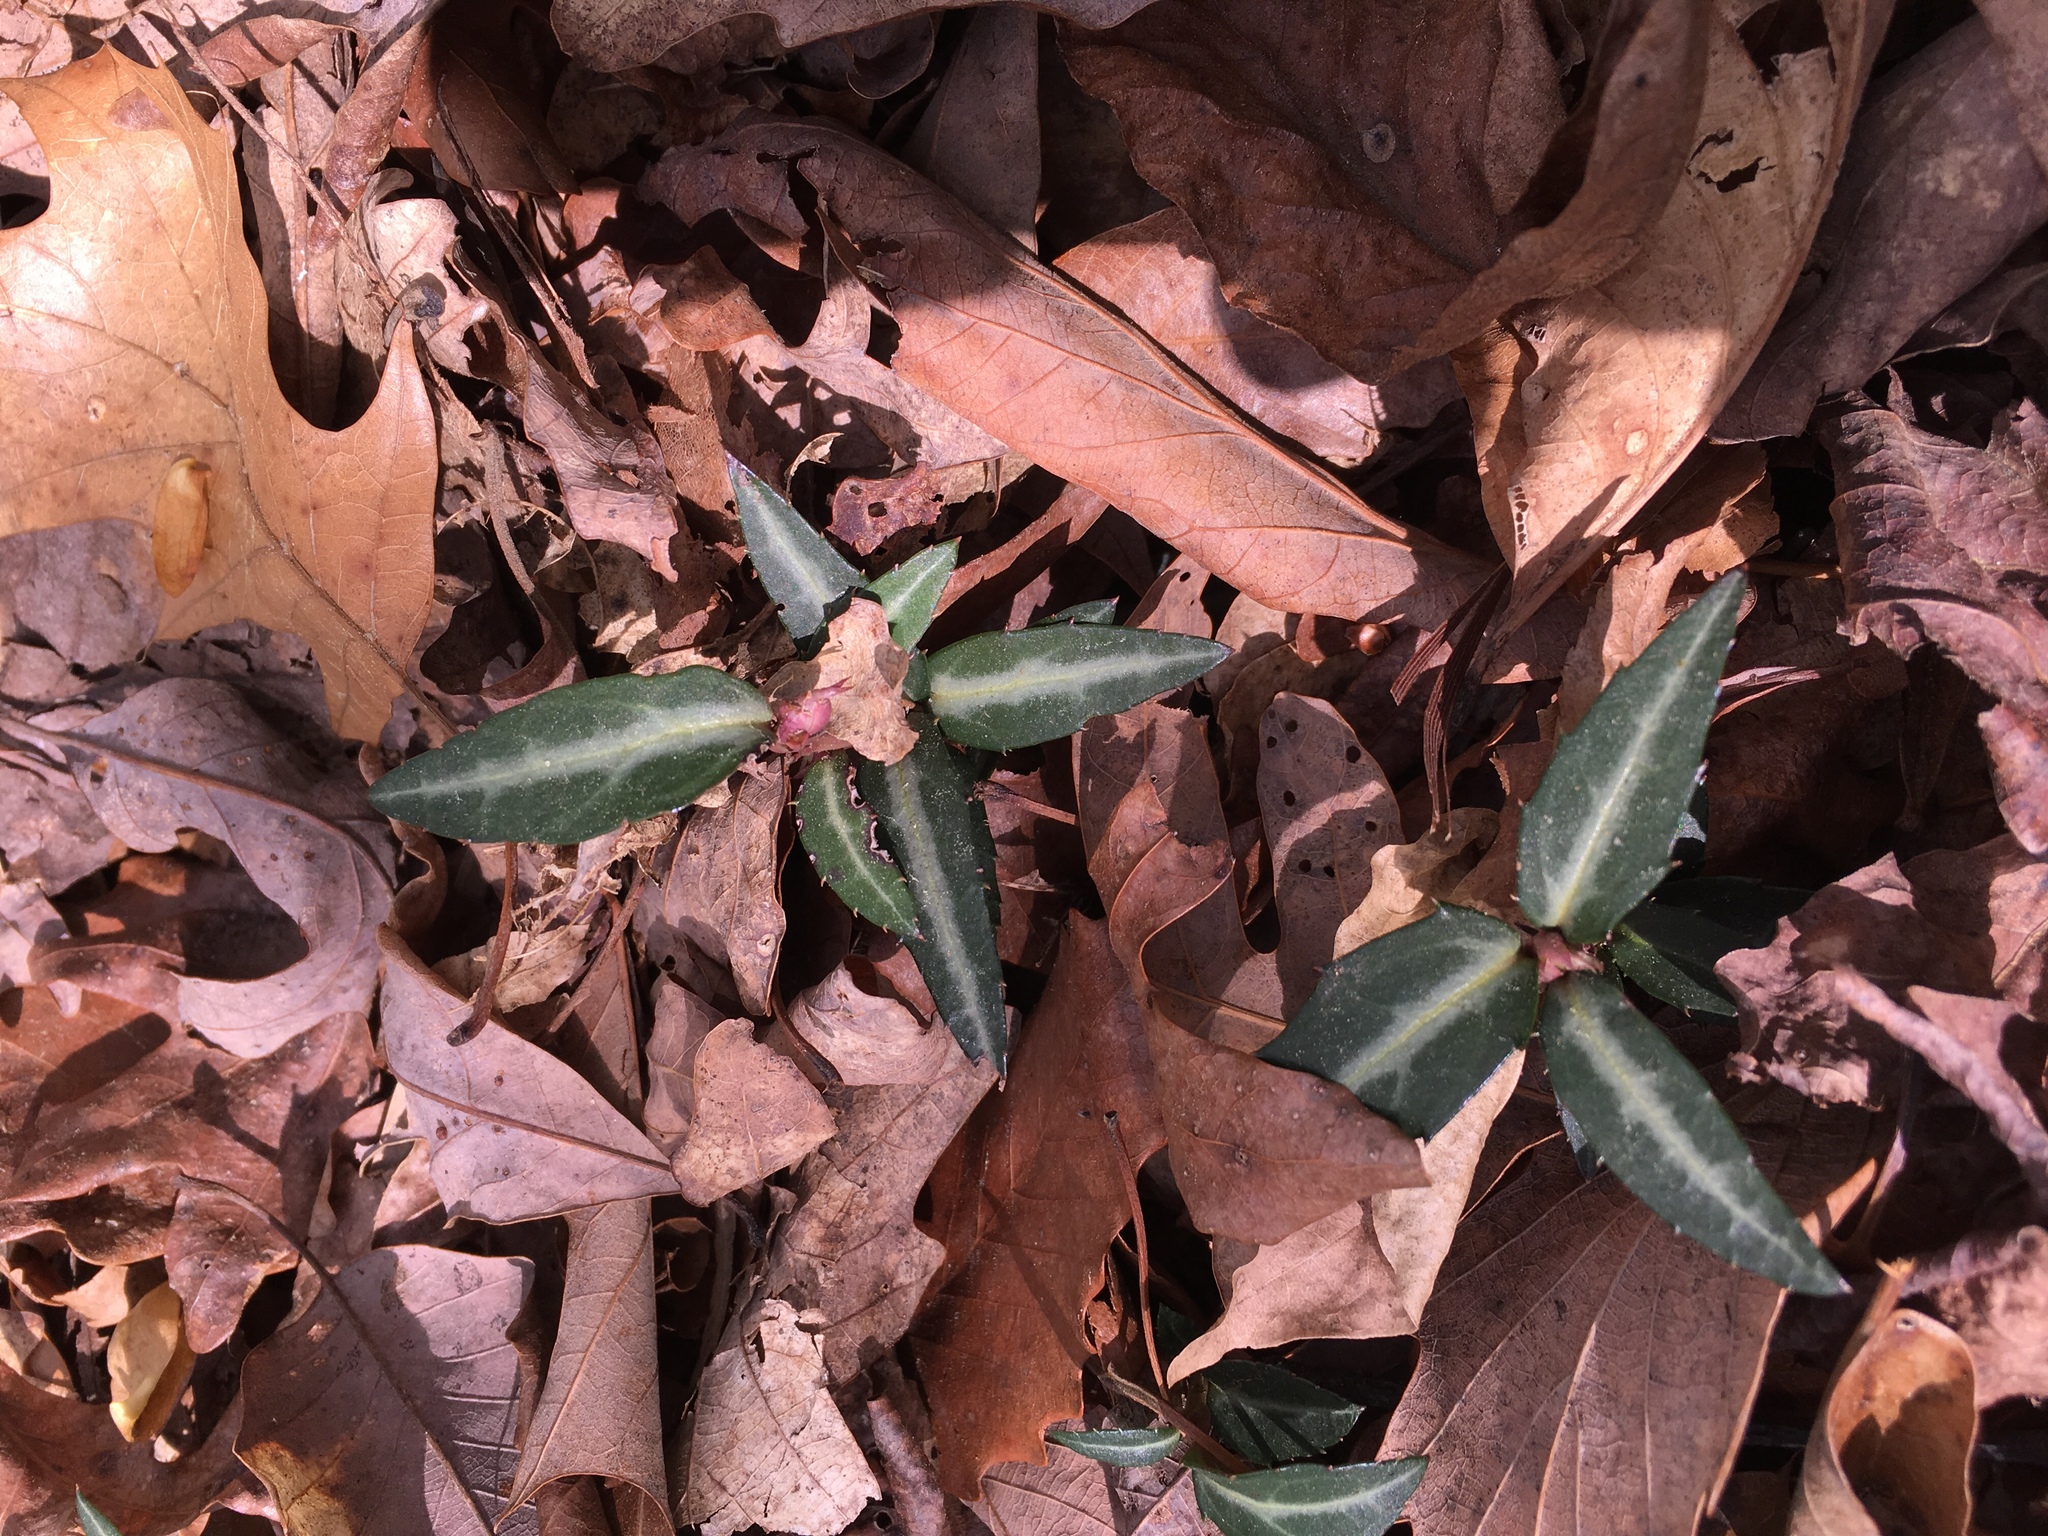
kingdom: Plantae
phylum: Tracheophyta
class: Magnoliopsida
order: Ericales
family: Ericaceae
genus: Chimaphila
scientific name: Chimaphila maculata
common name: Spotted pipsissewa
